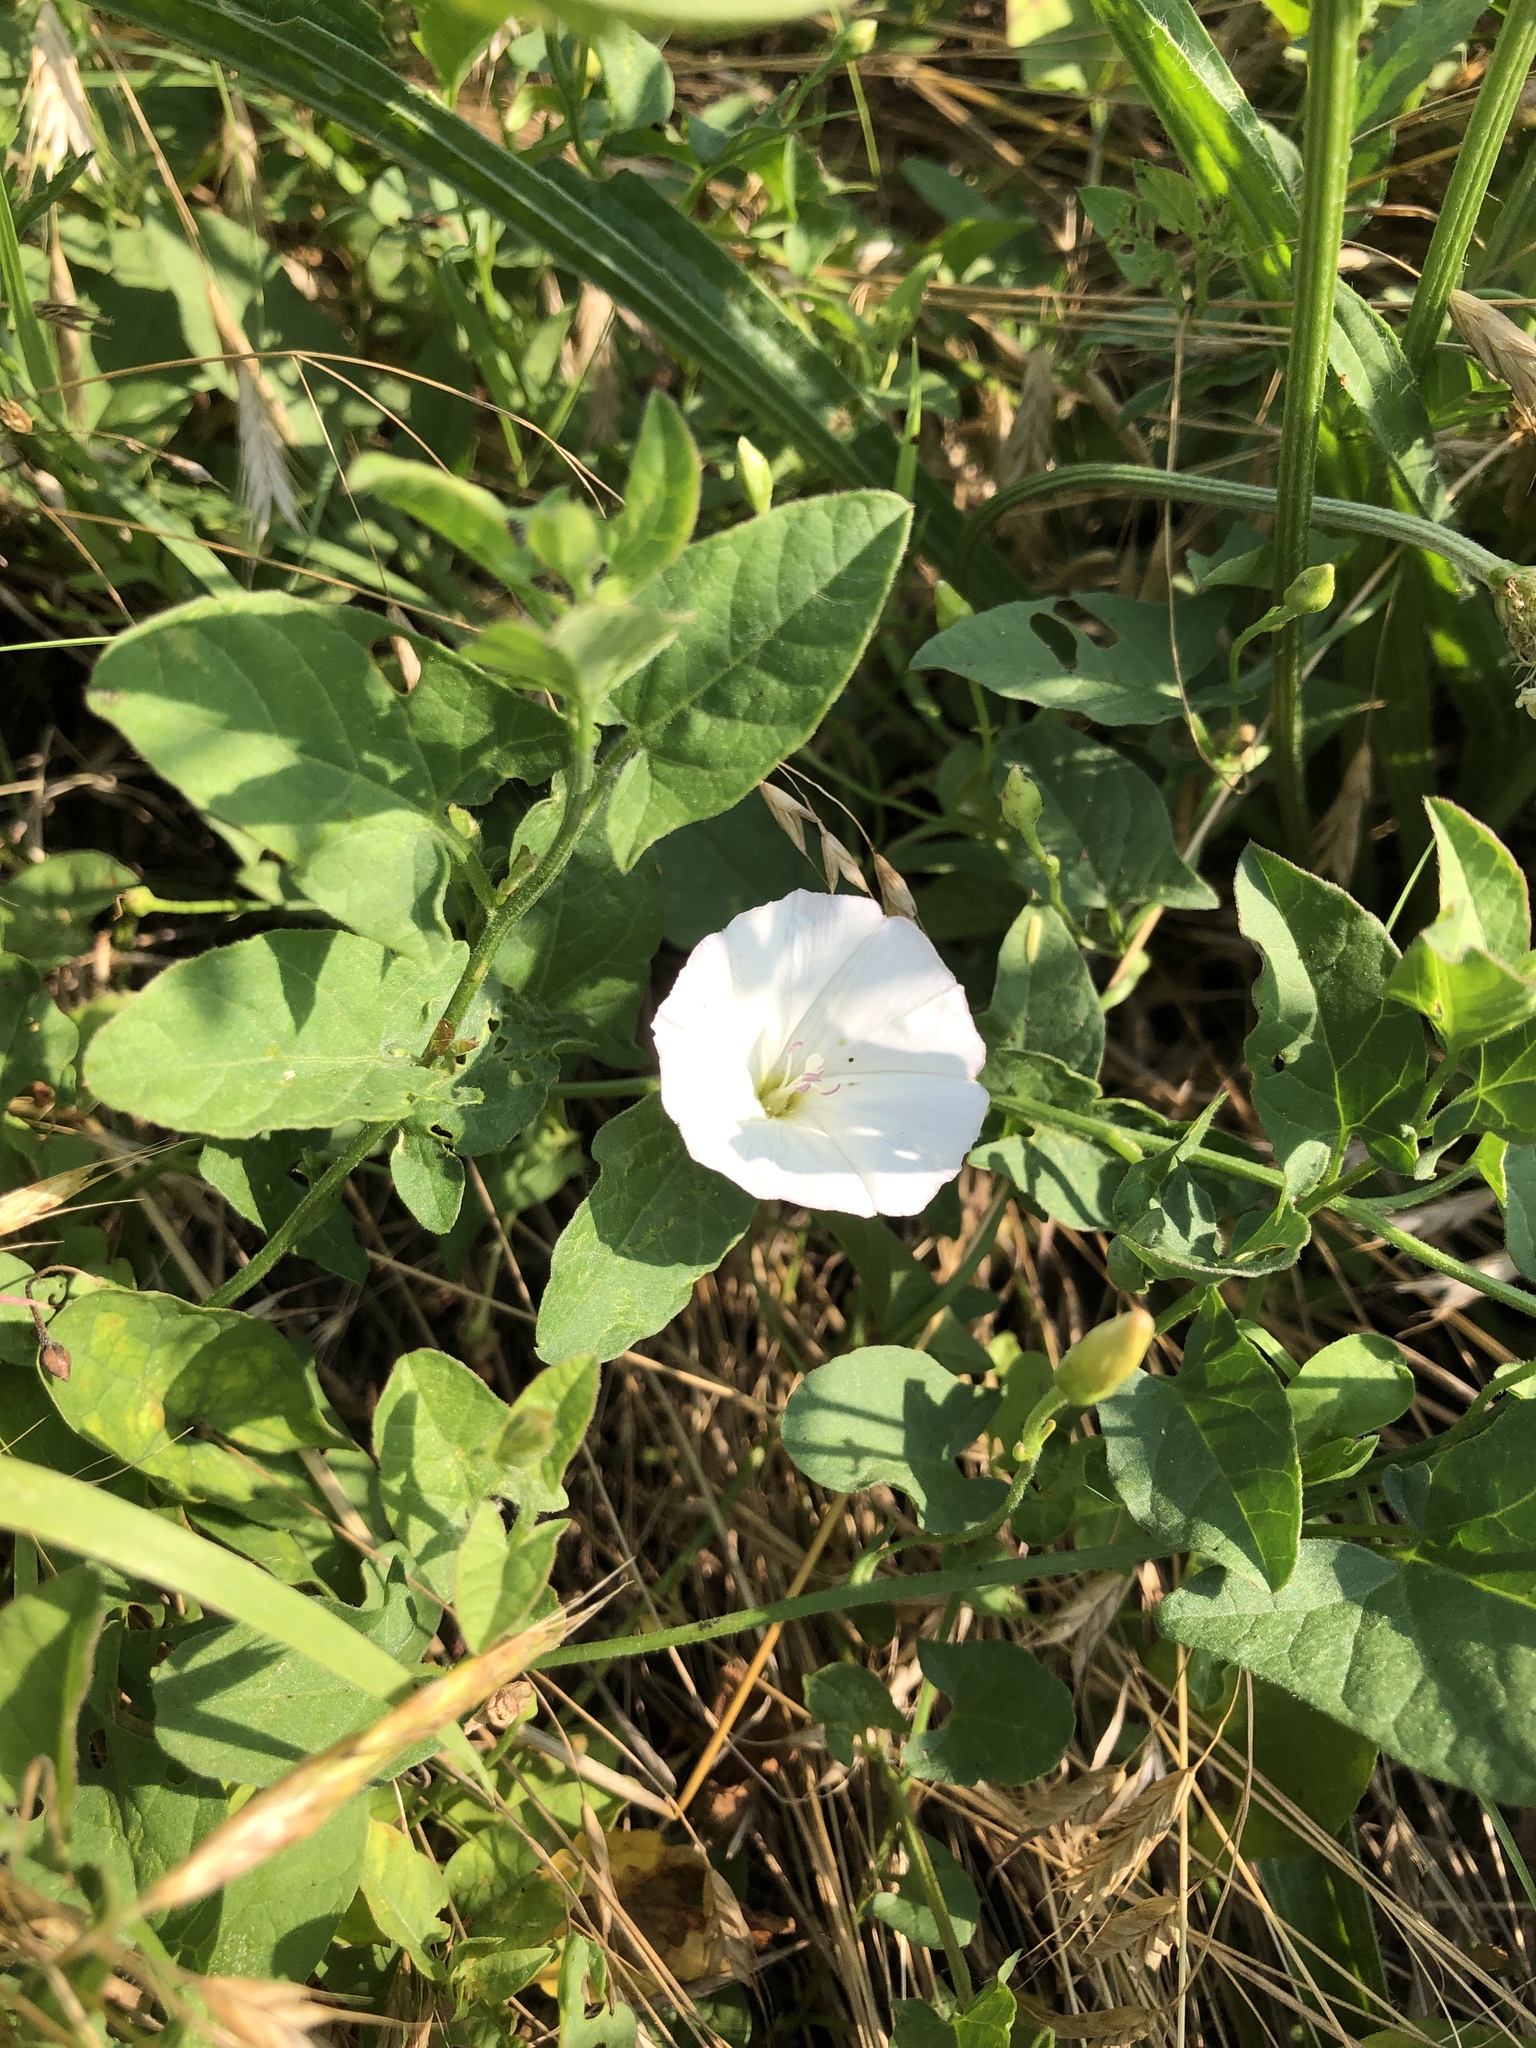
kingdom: Plantae
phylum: Tracheophyta
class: Magnoliopsida
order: Solanales
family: Convolvulaceae
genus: Convolvulus
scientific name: Convolvulus arvensis
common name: Field bindweed
